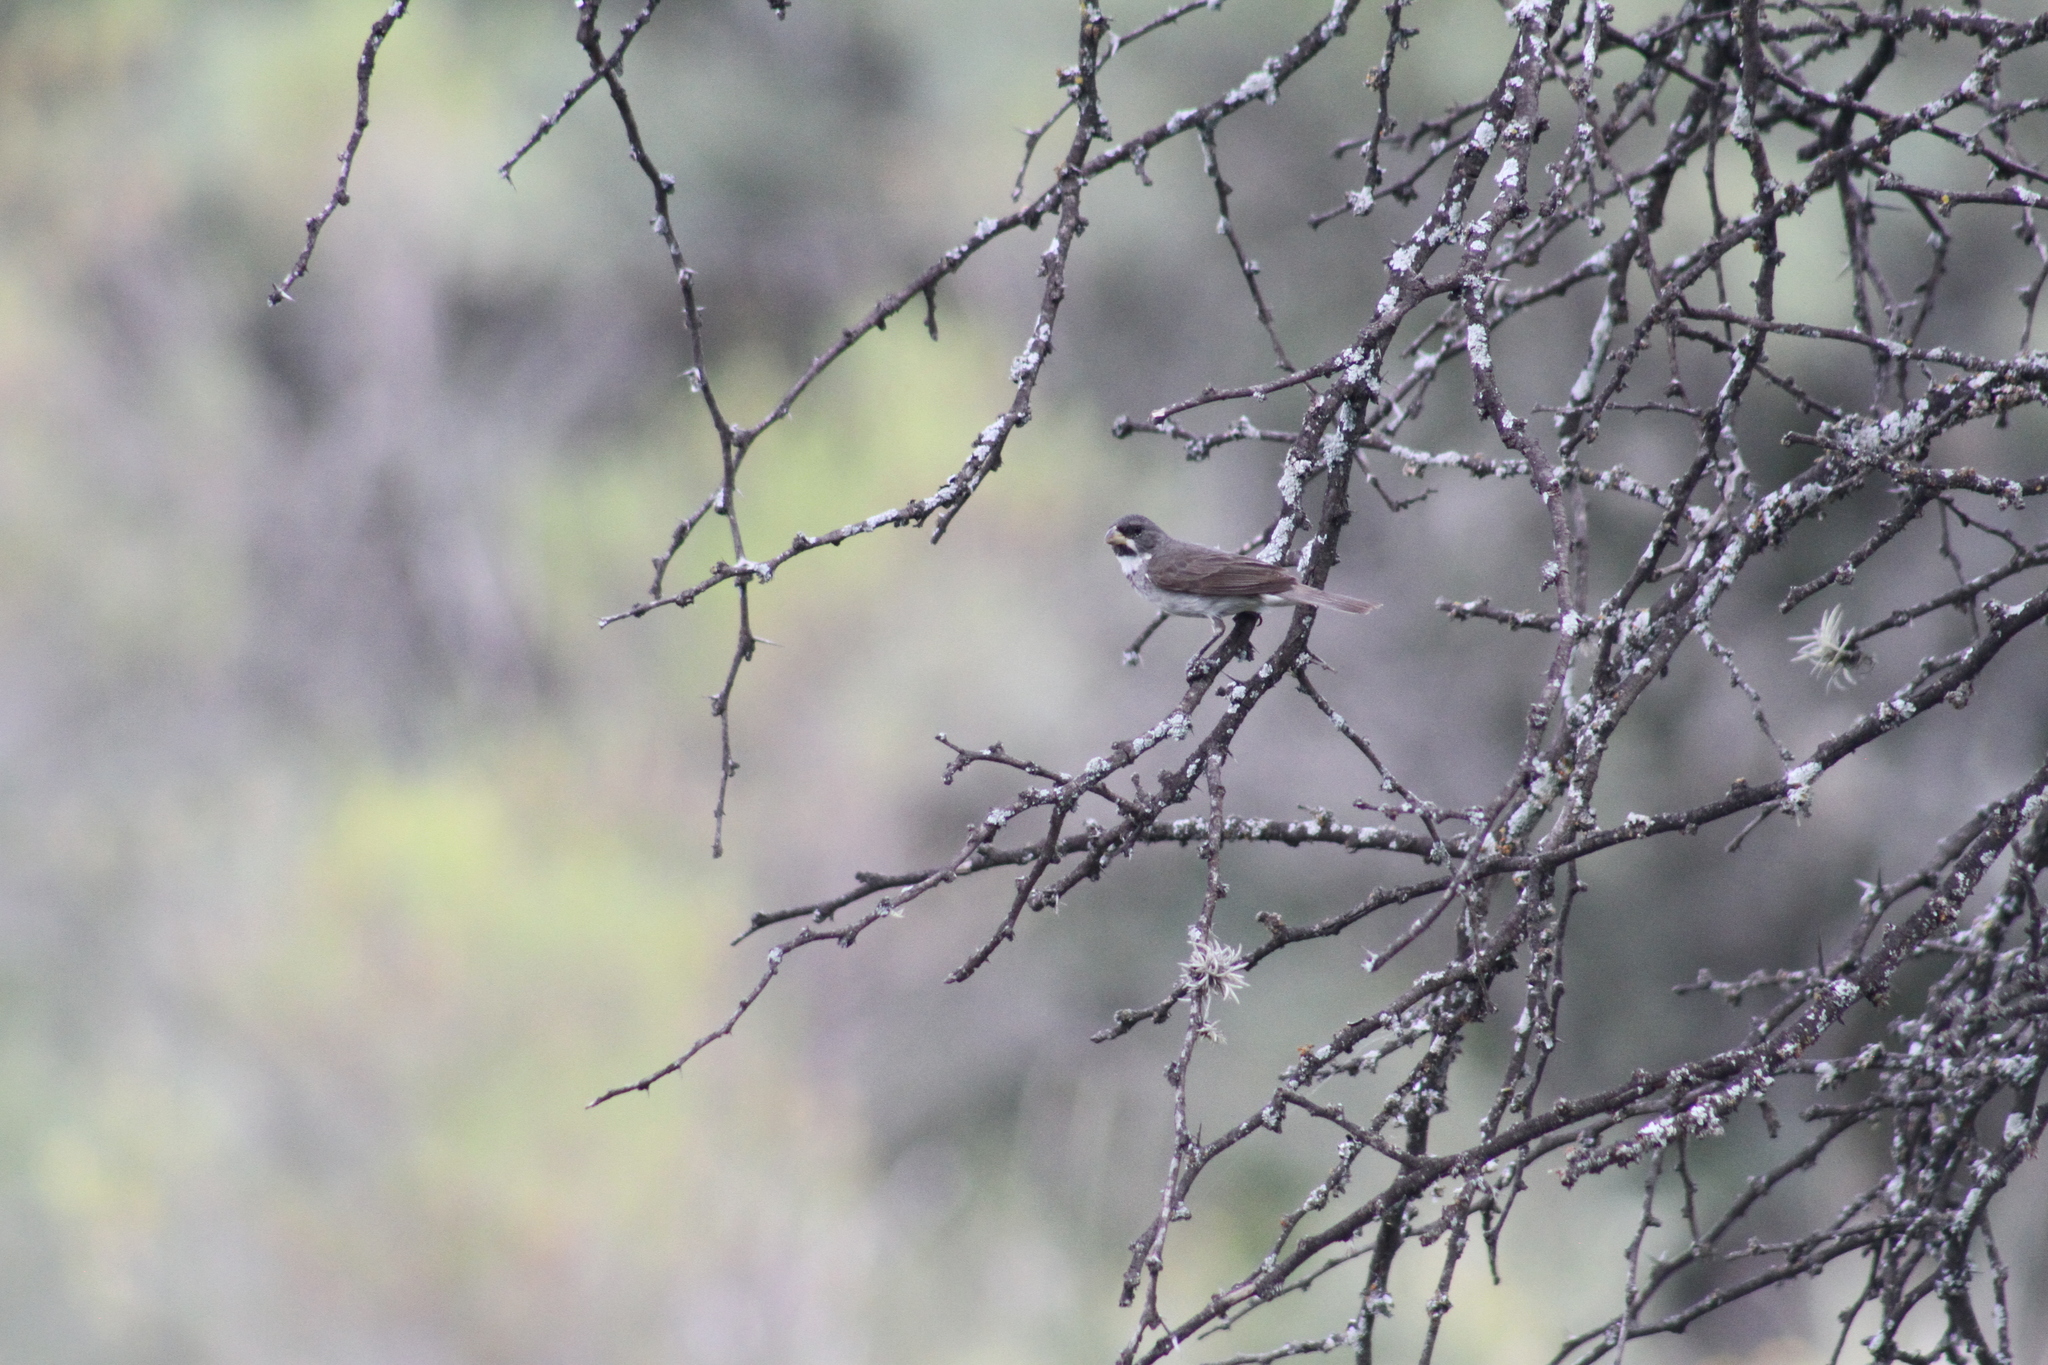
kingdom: Animalia
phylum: Chordata
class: Aves
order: Passeriformes
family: Thraupidae
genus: Sporophila
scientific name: Sporophila caerulescens
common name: Double-collared seedeater
